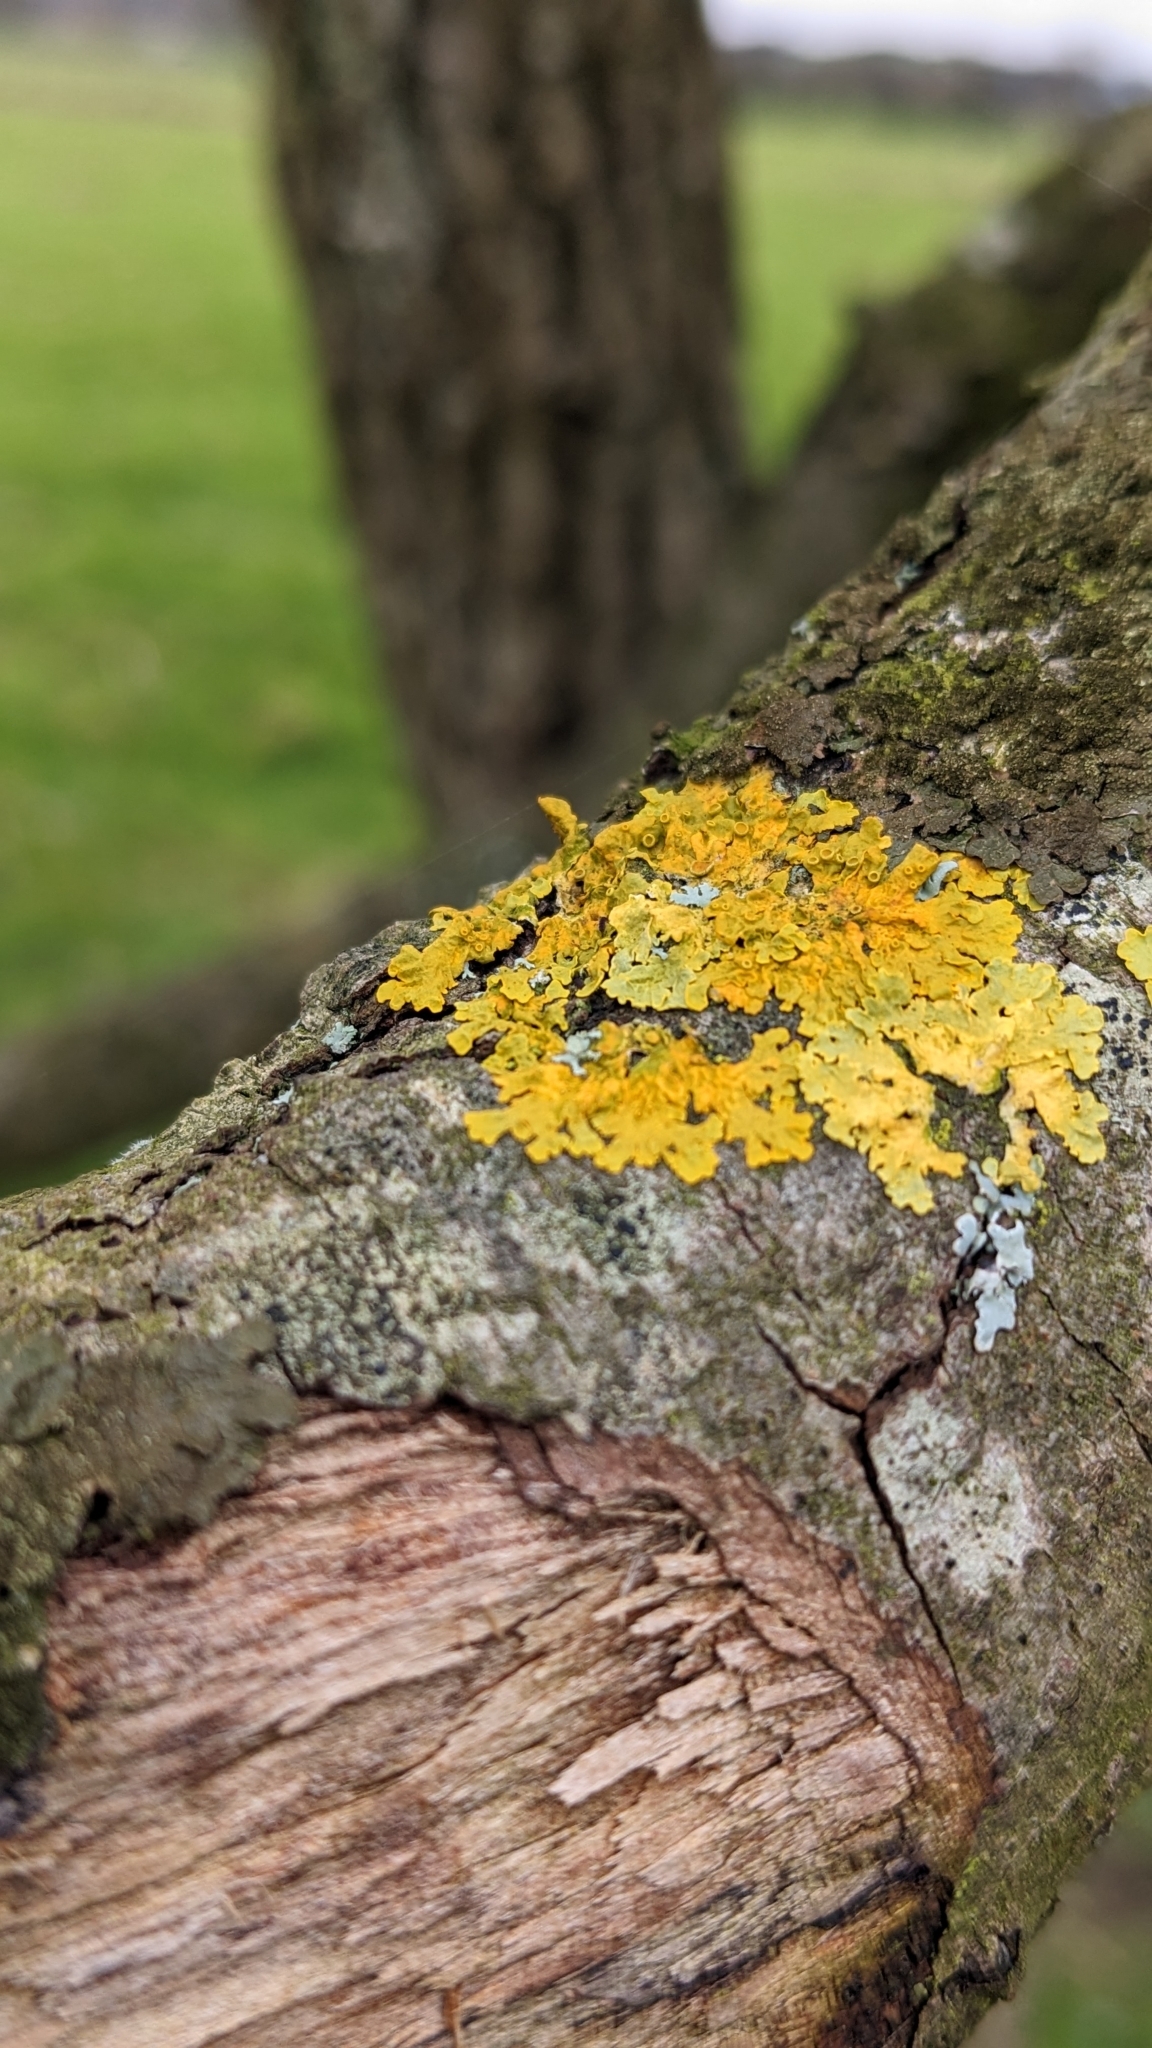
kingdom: Fungi
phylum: Ascomycota
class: Lecanoromycetes
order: Teloschistales
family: Teloschistaceae
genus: Xanthoria
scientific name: Xanthoria parietina
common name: Common orange lichen
